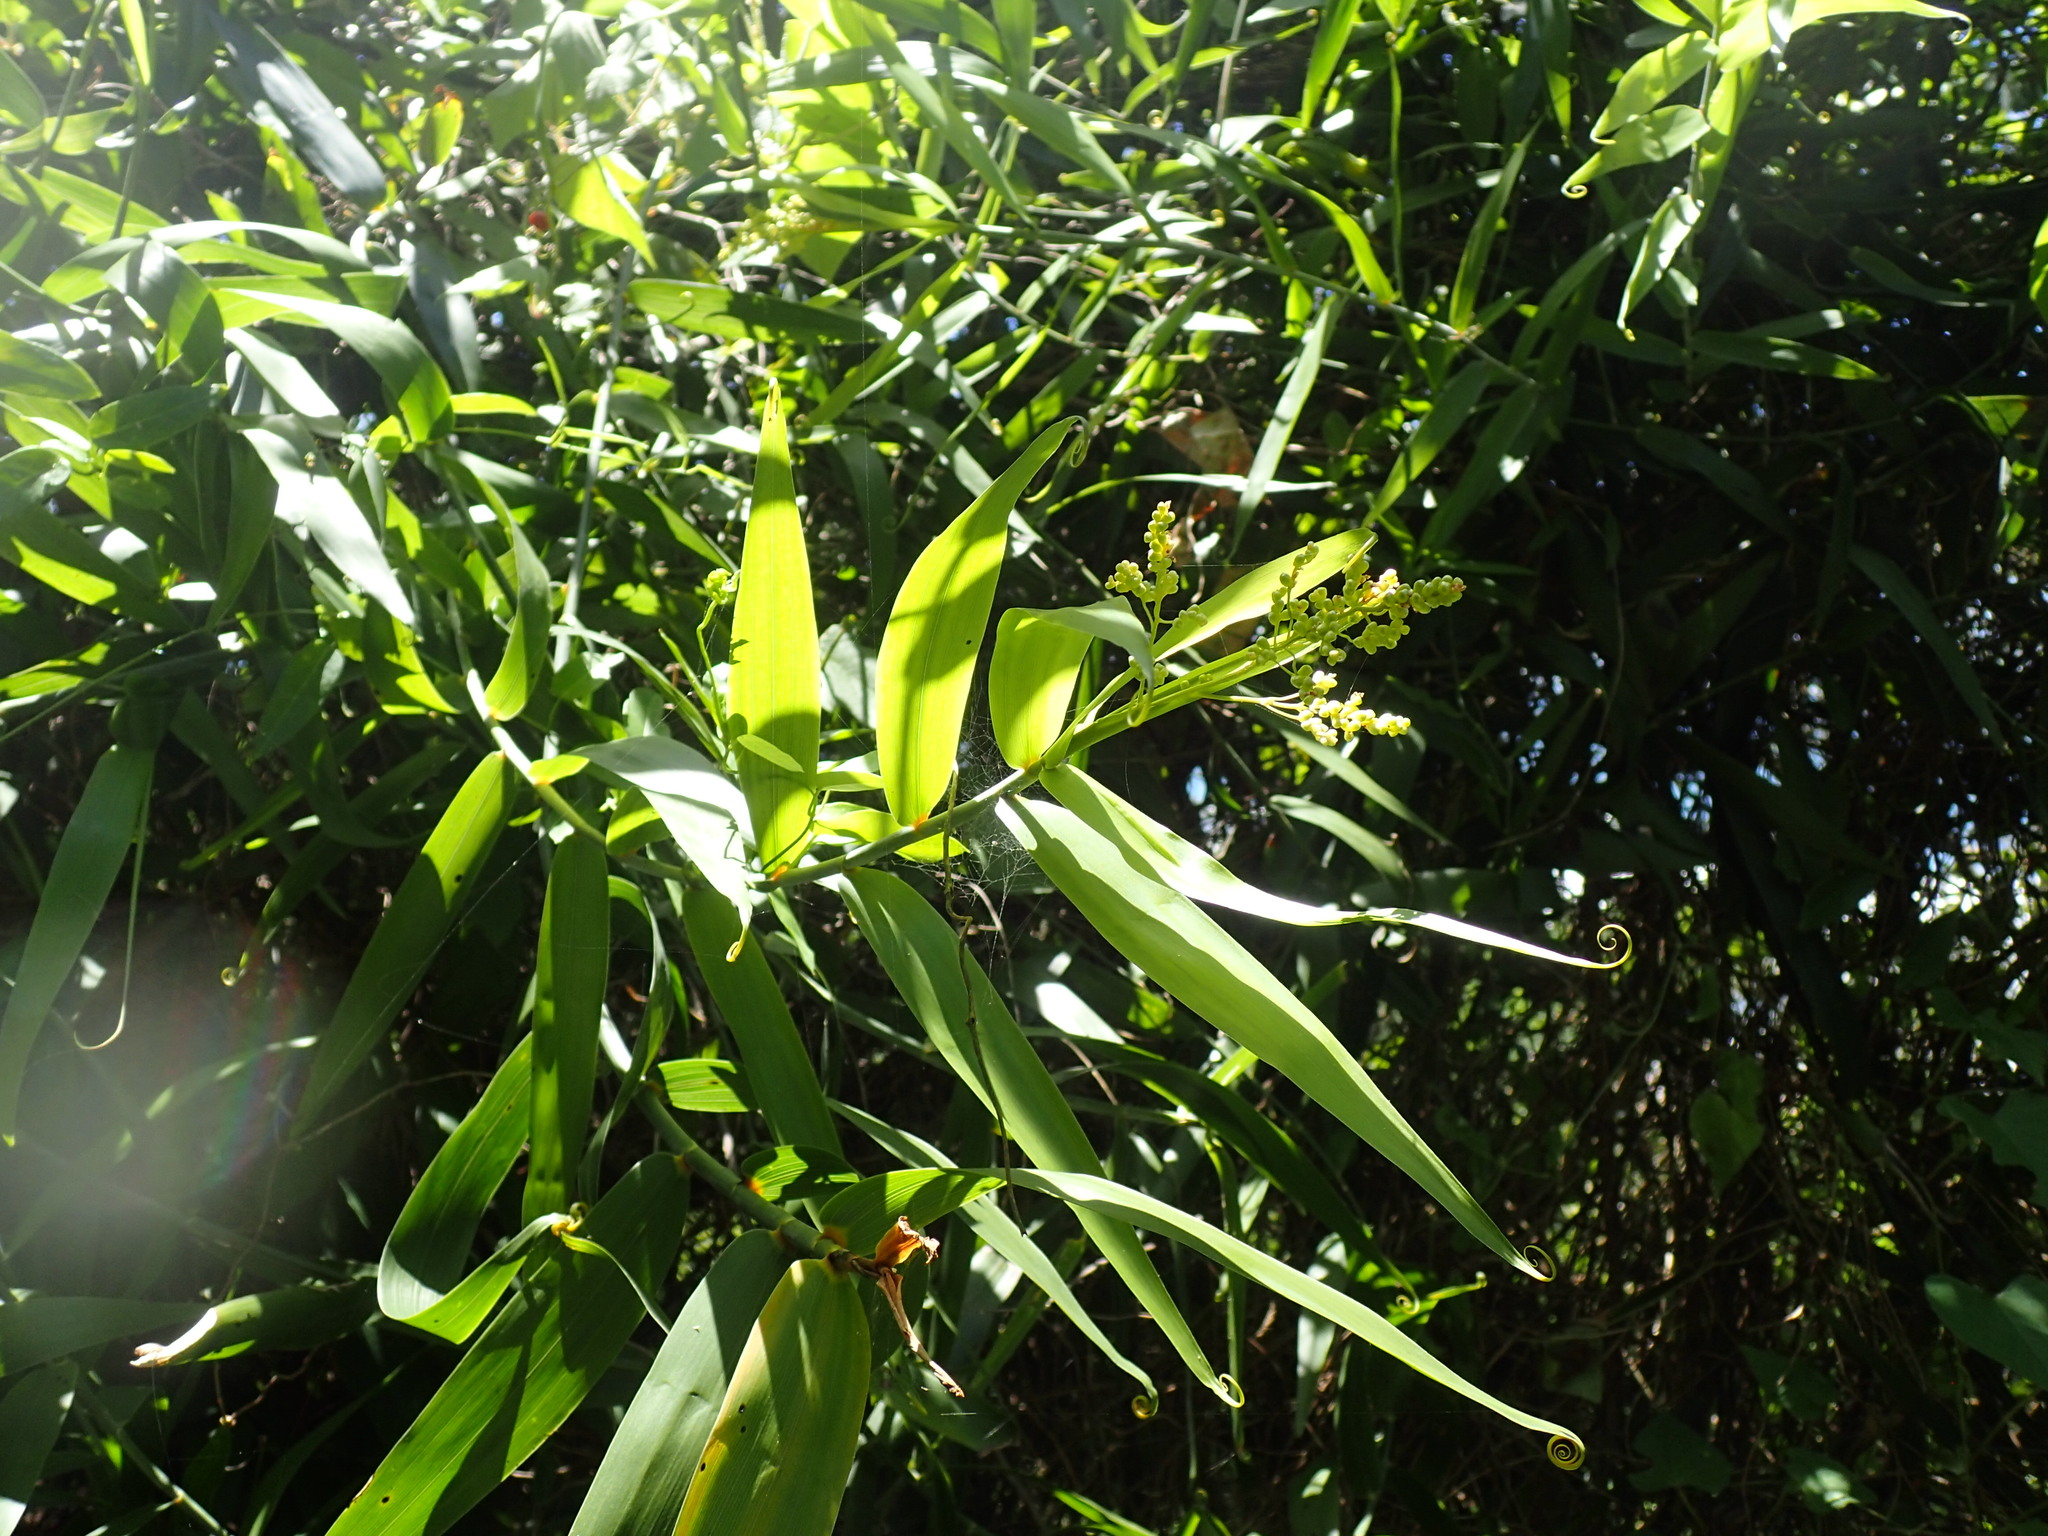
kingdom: Plantae
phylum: Tracheophyta
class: Liliopsida
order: Poales
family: Flagellariaceae
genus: Flagellaria
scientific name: Flagellaria guineensis
